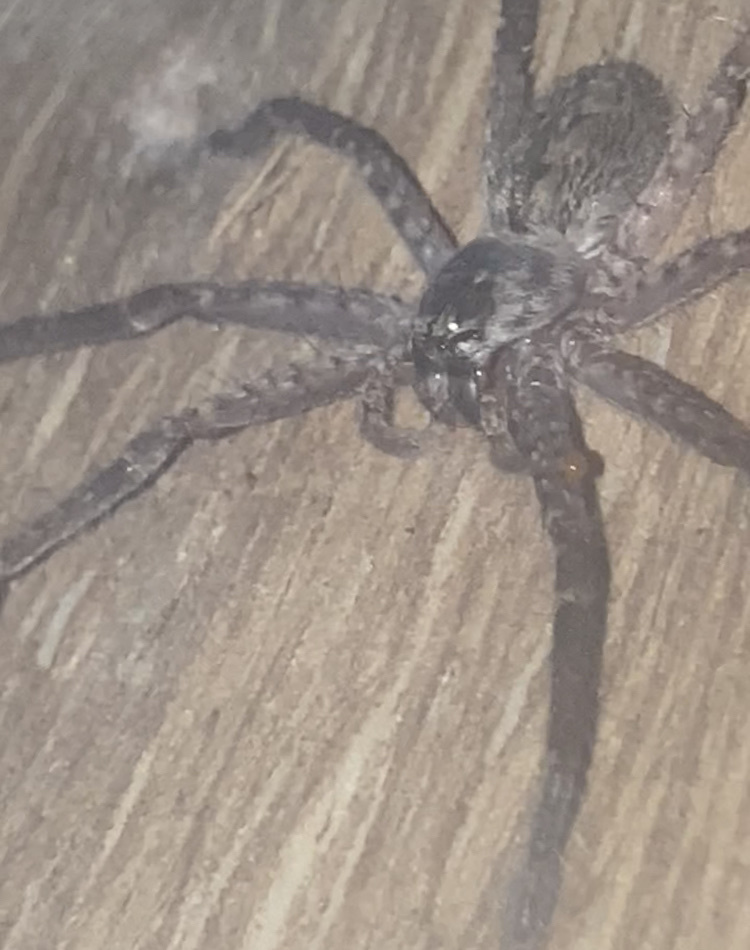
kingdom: Animalia
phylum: Arthropoda
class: Arachnida
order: Araneae
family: Sparassidae
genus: Isopeda
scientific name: Isopeda villosa
